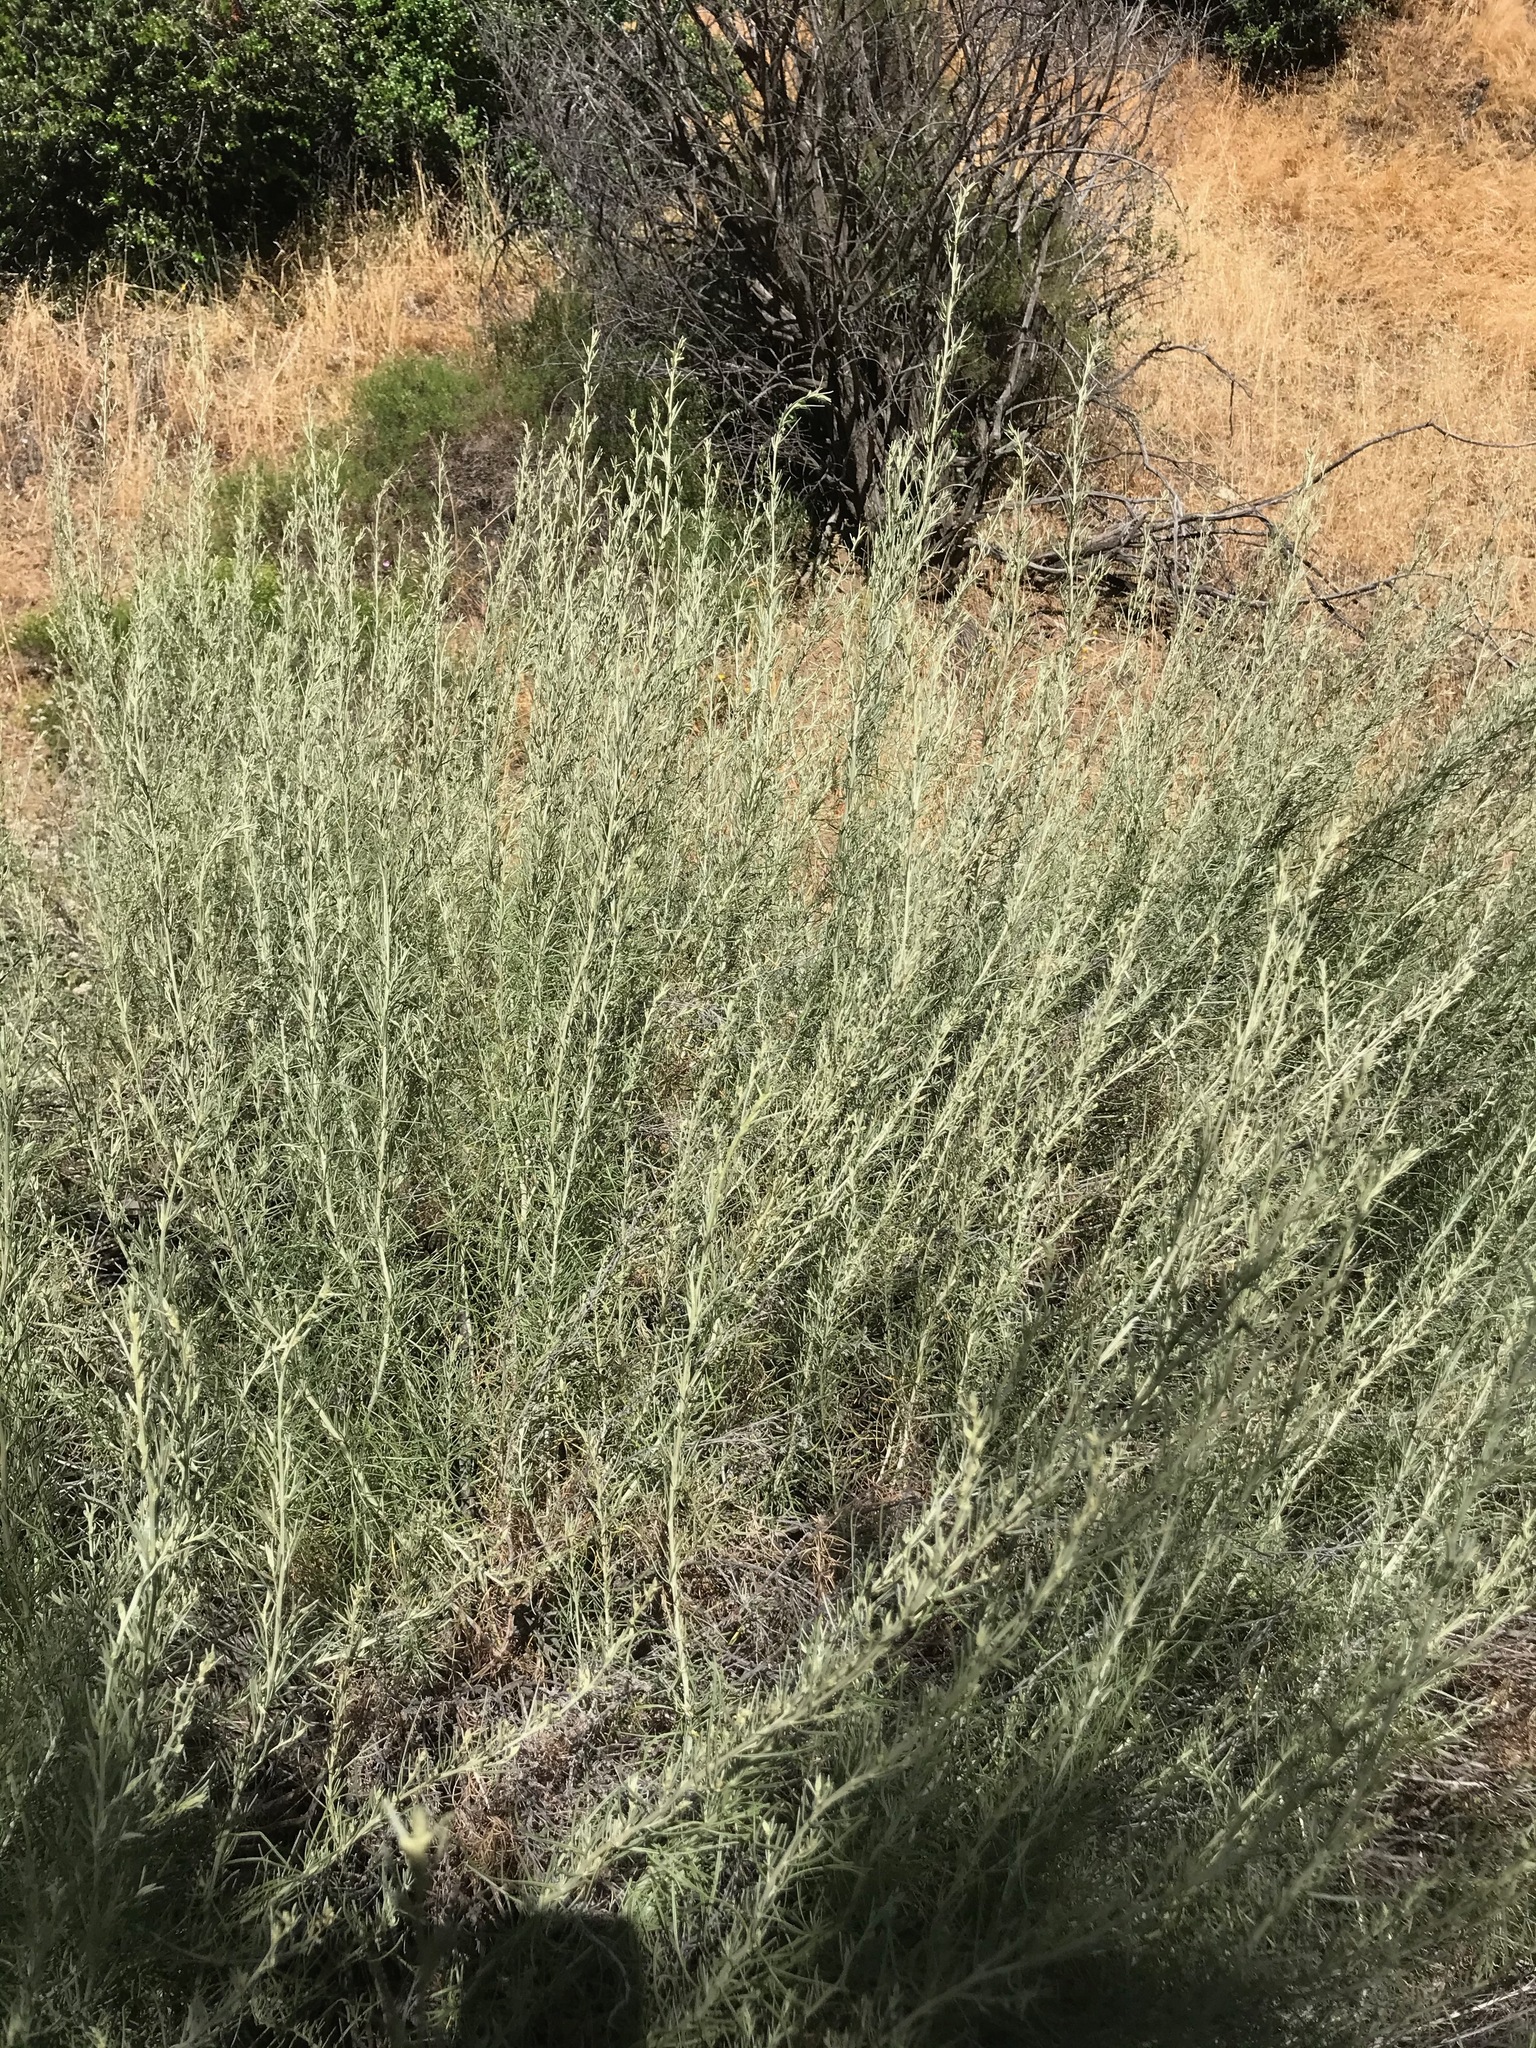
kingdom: Plantae
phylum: Tracheophyta
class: Magnoliopsida
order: Asterales
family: Asteraceae
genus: Artemisia
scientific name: Artemisia californica
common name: California sagebrush
